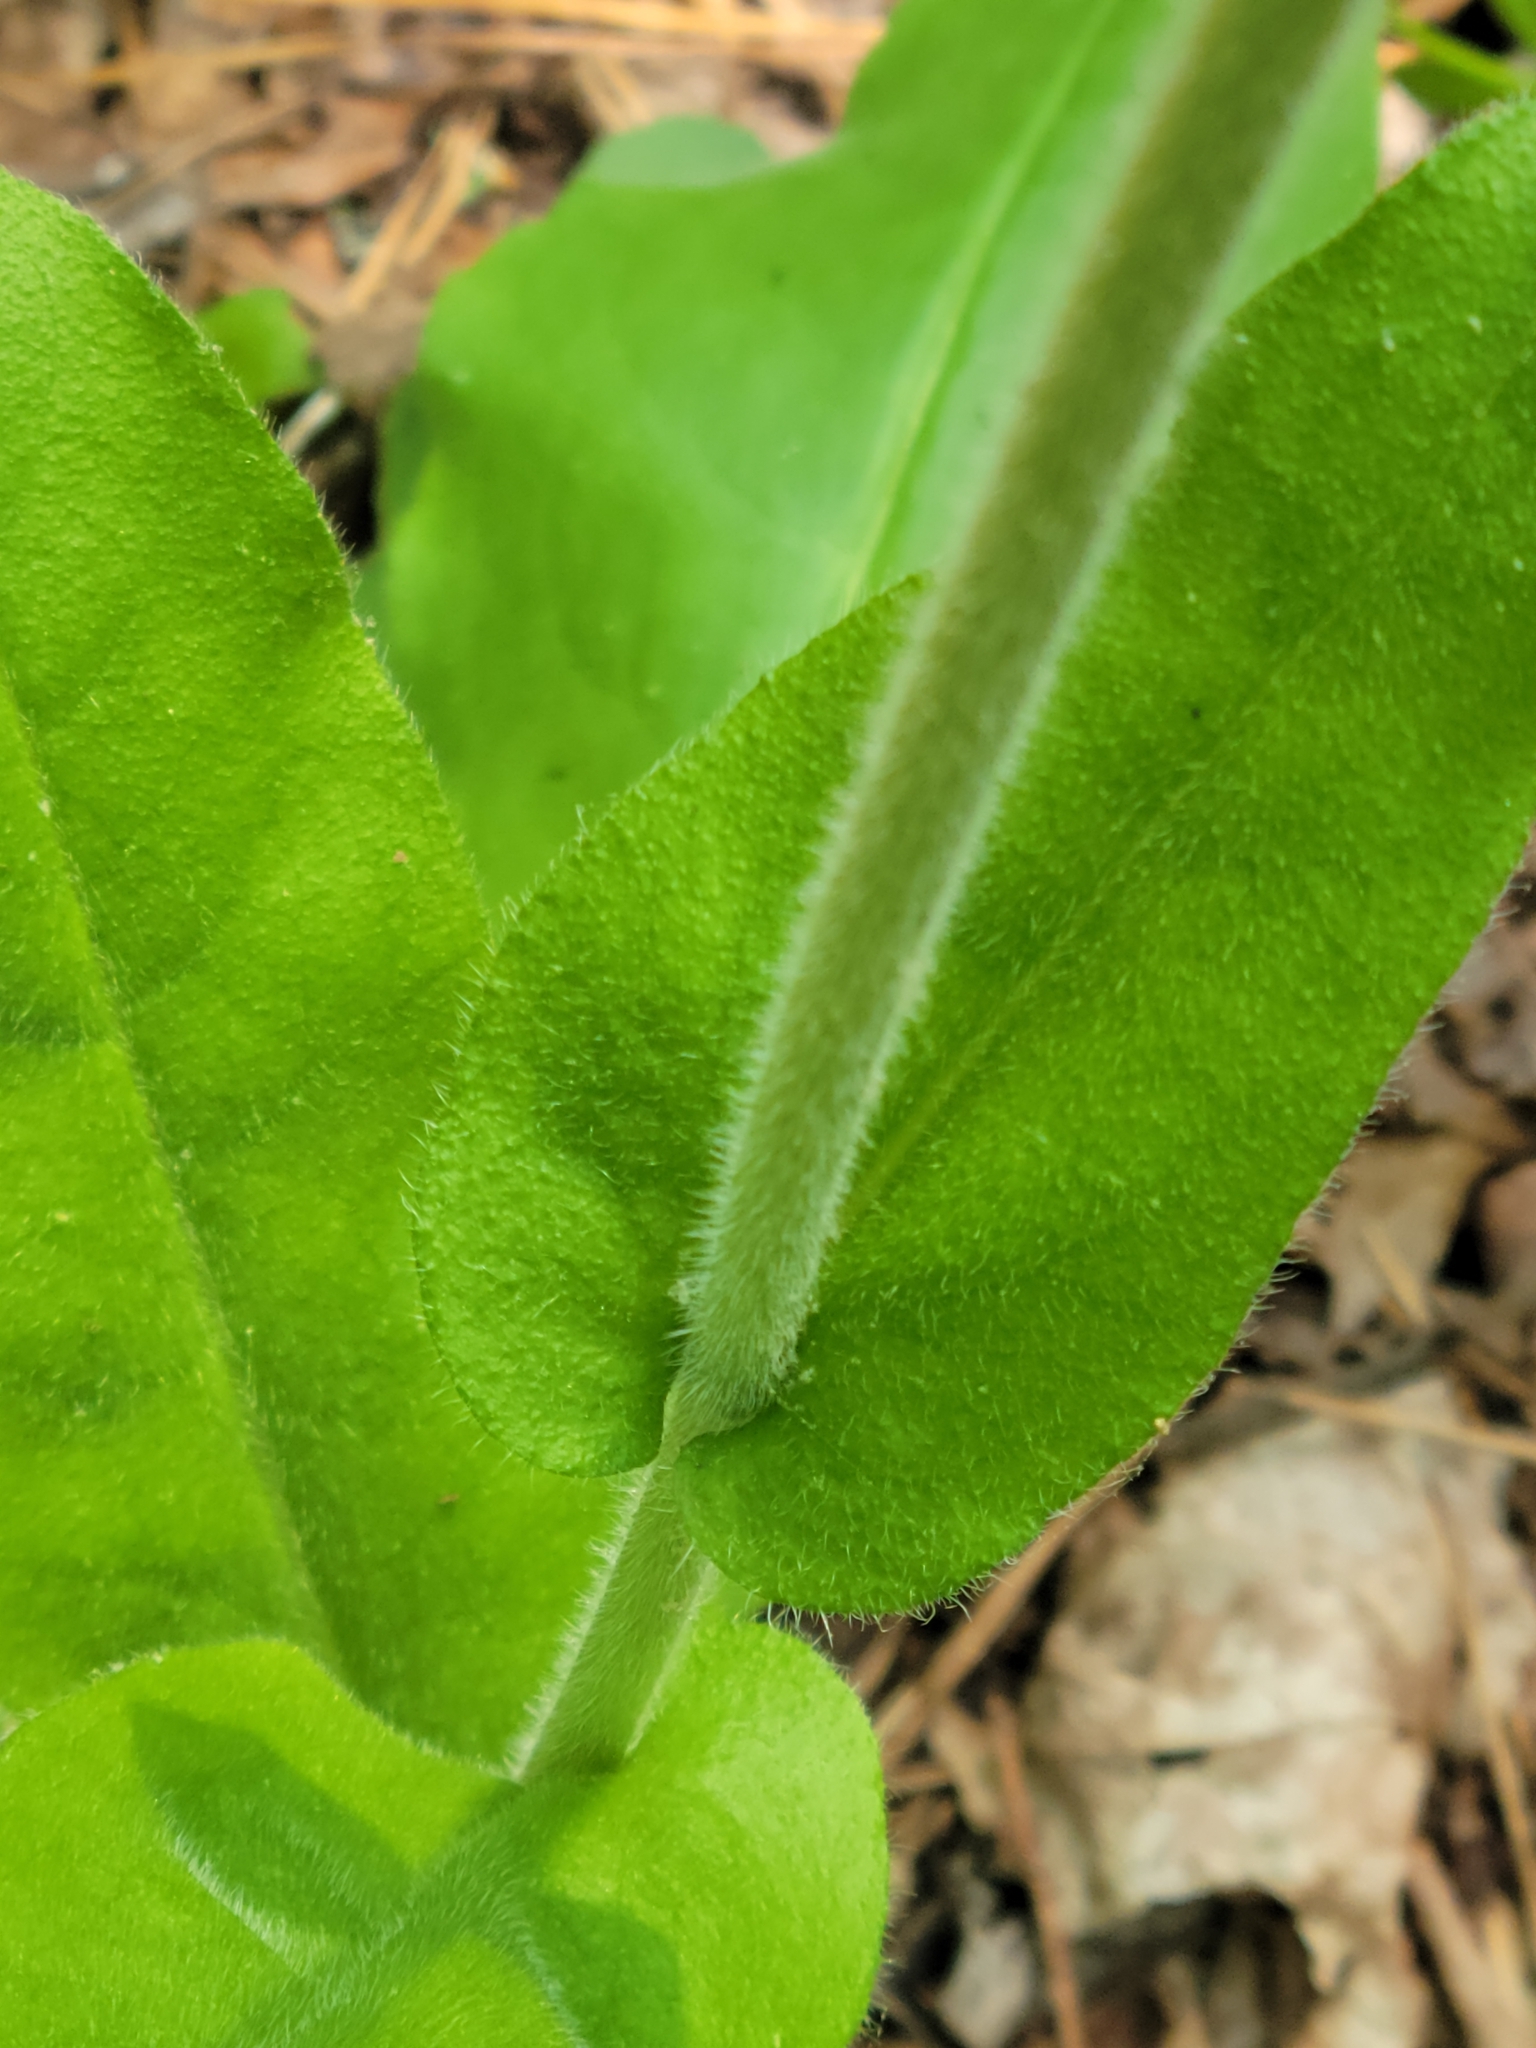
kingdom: Plantae
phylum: Tracheophyta
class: Magnoliopsida
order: Boraginales
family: Boraginaceae
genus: Andersonglossum
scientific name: Andersonglossum virginianum
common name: Wild comfrey
